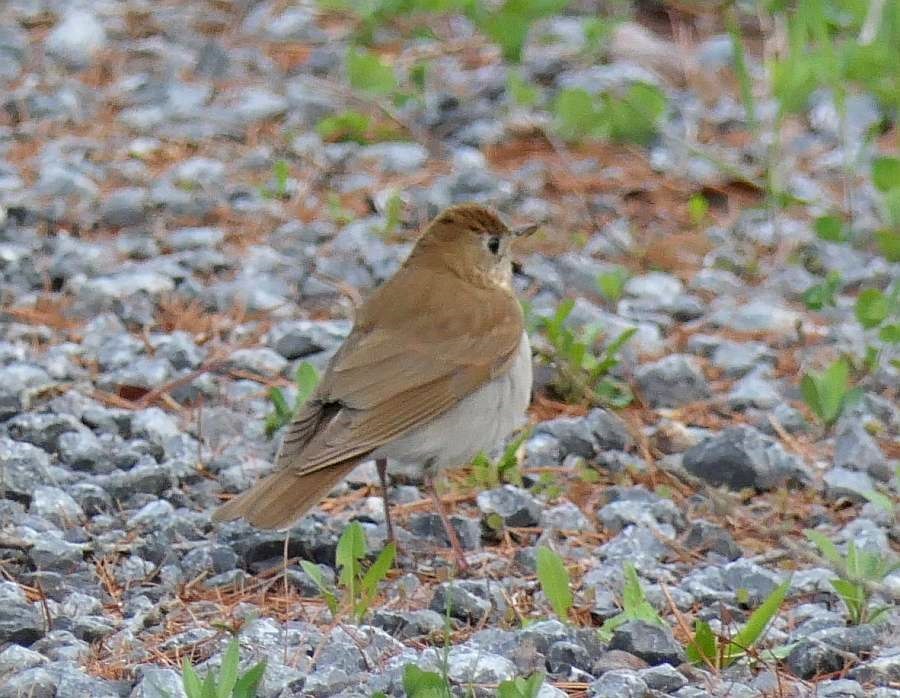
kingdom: Animalia
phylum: Chordata
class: Aves
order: Passeriformes
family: Turdidae
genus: Catharus
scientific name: Catharus fuscescens
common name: Veery
